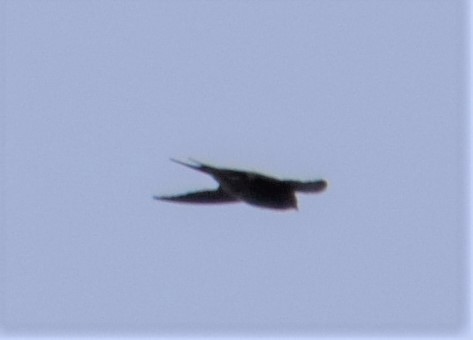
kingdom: Animalia
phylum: Chordata
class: Aves
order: Passeriformes
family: Hirundinidae
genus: Hirundo
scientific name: Hirundo neoxena
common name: Welcome swallow
